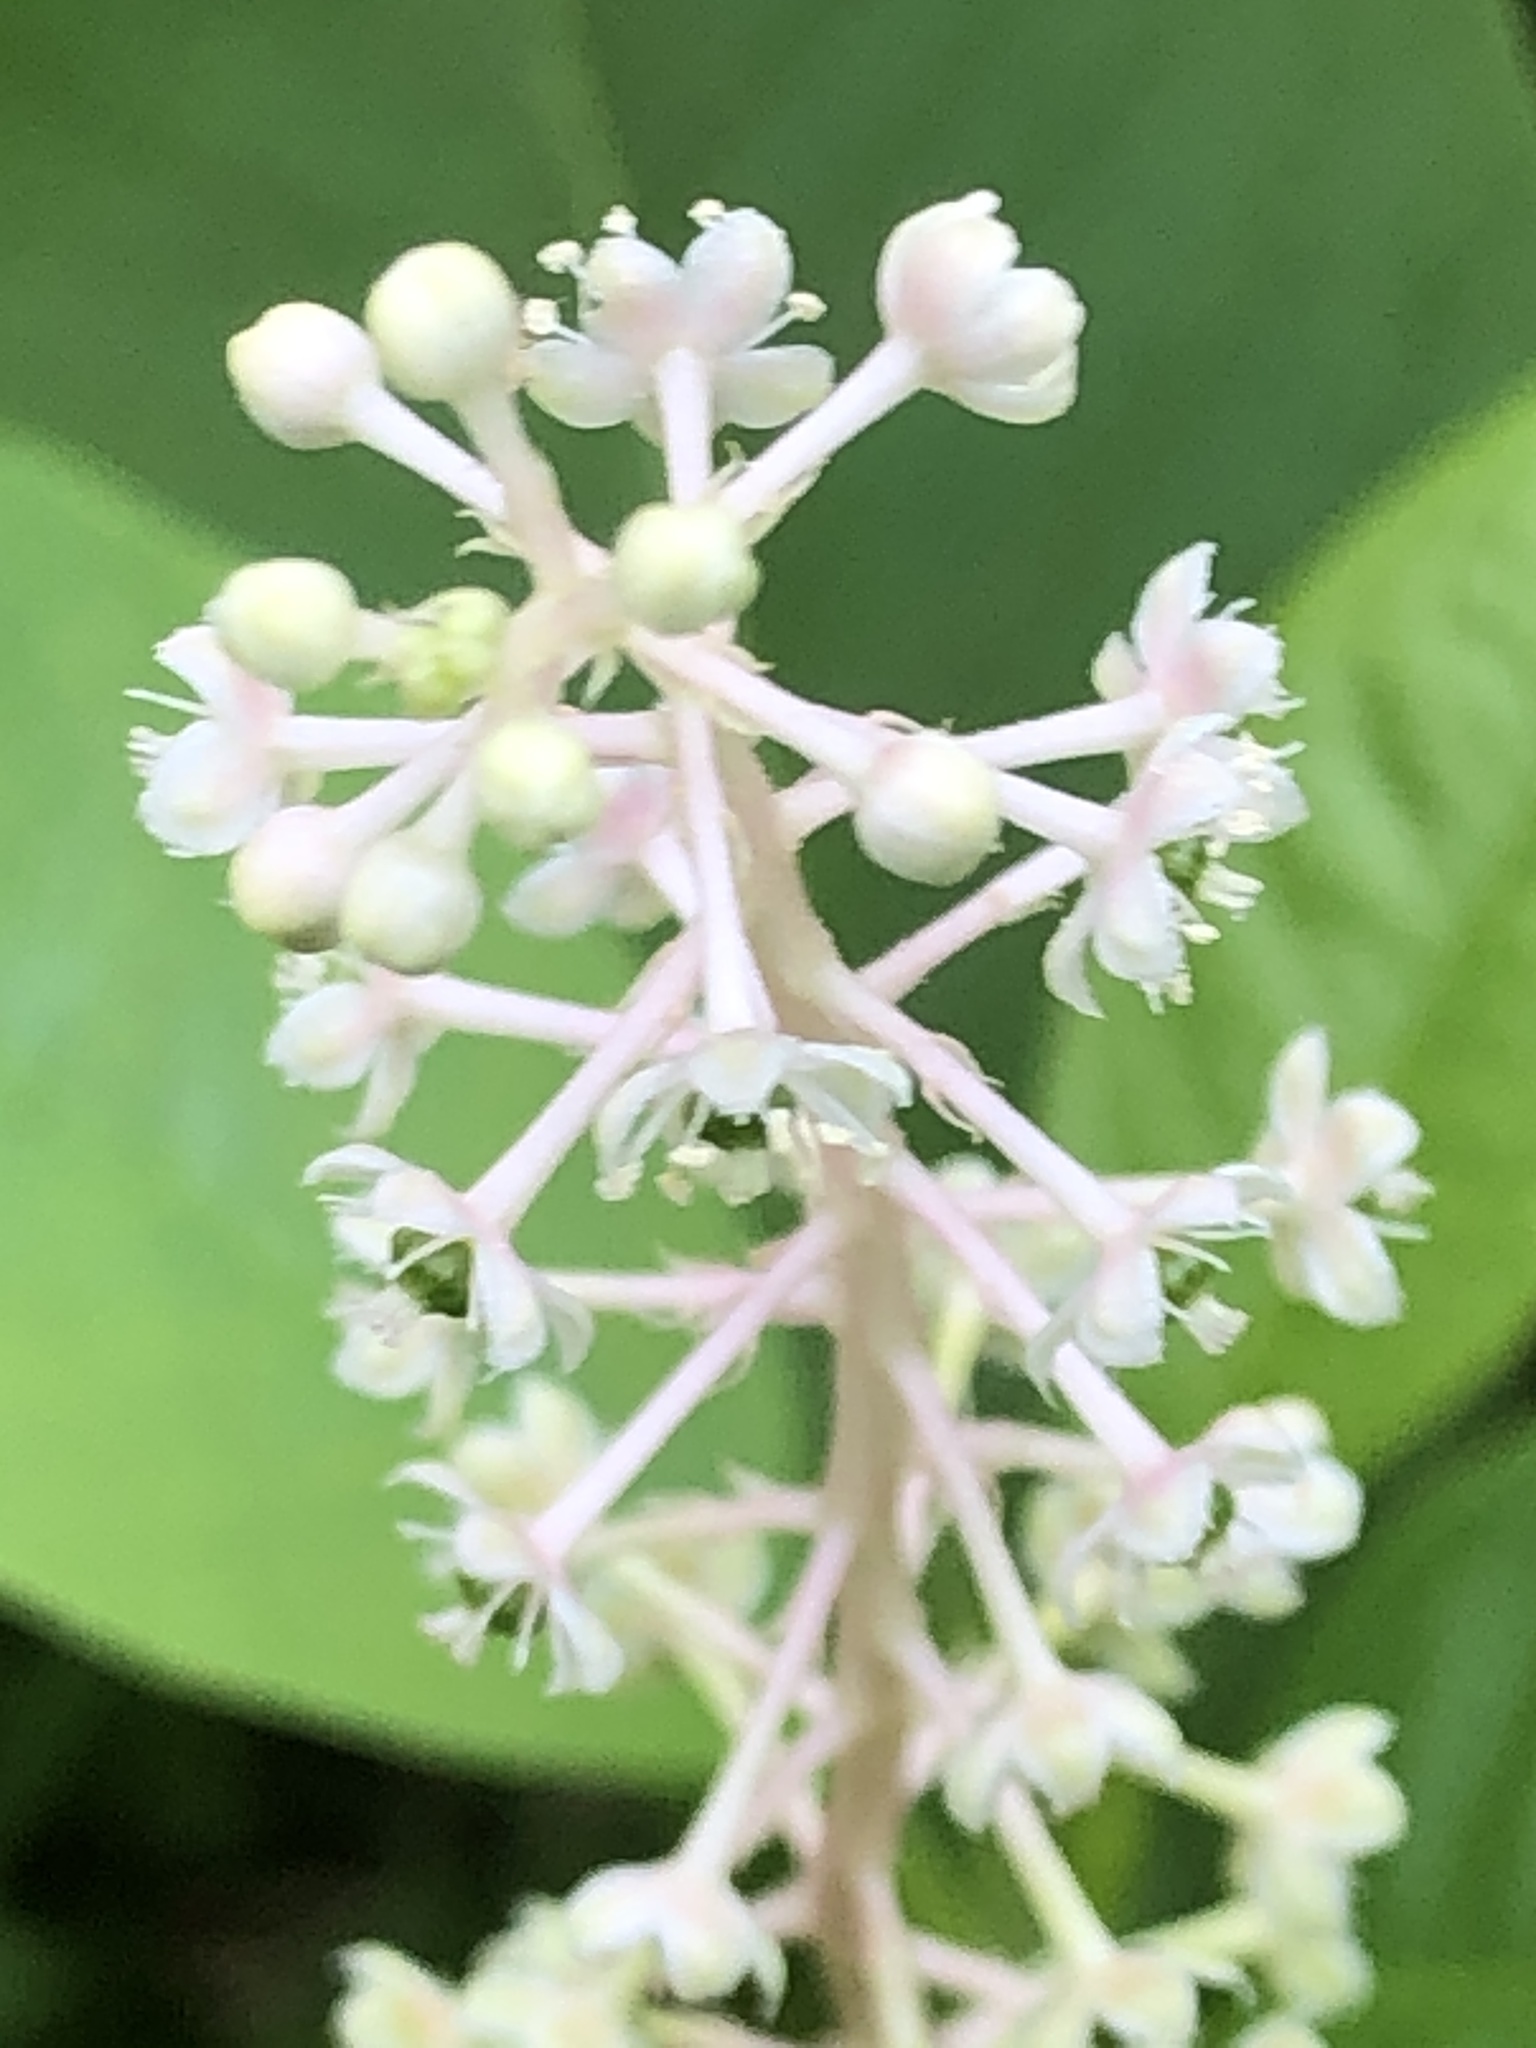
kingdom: Plantae
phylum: Tracheophyta
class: Magnoliopsida
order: Caryophyllales
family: Phytolaccaceae
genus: Phytolacca
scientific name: Phytolacca americana
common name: American pokeweed
